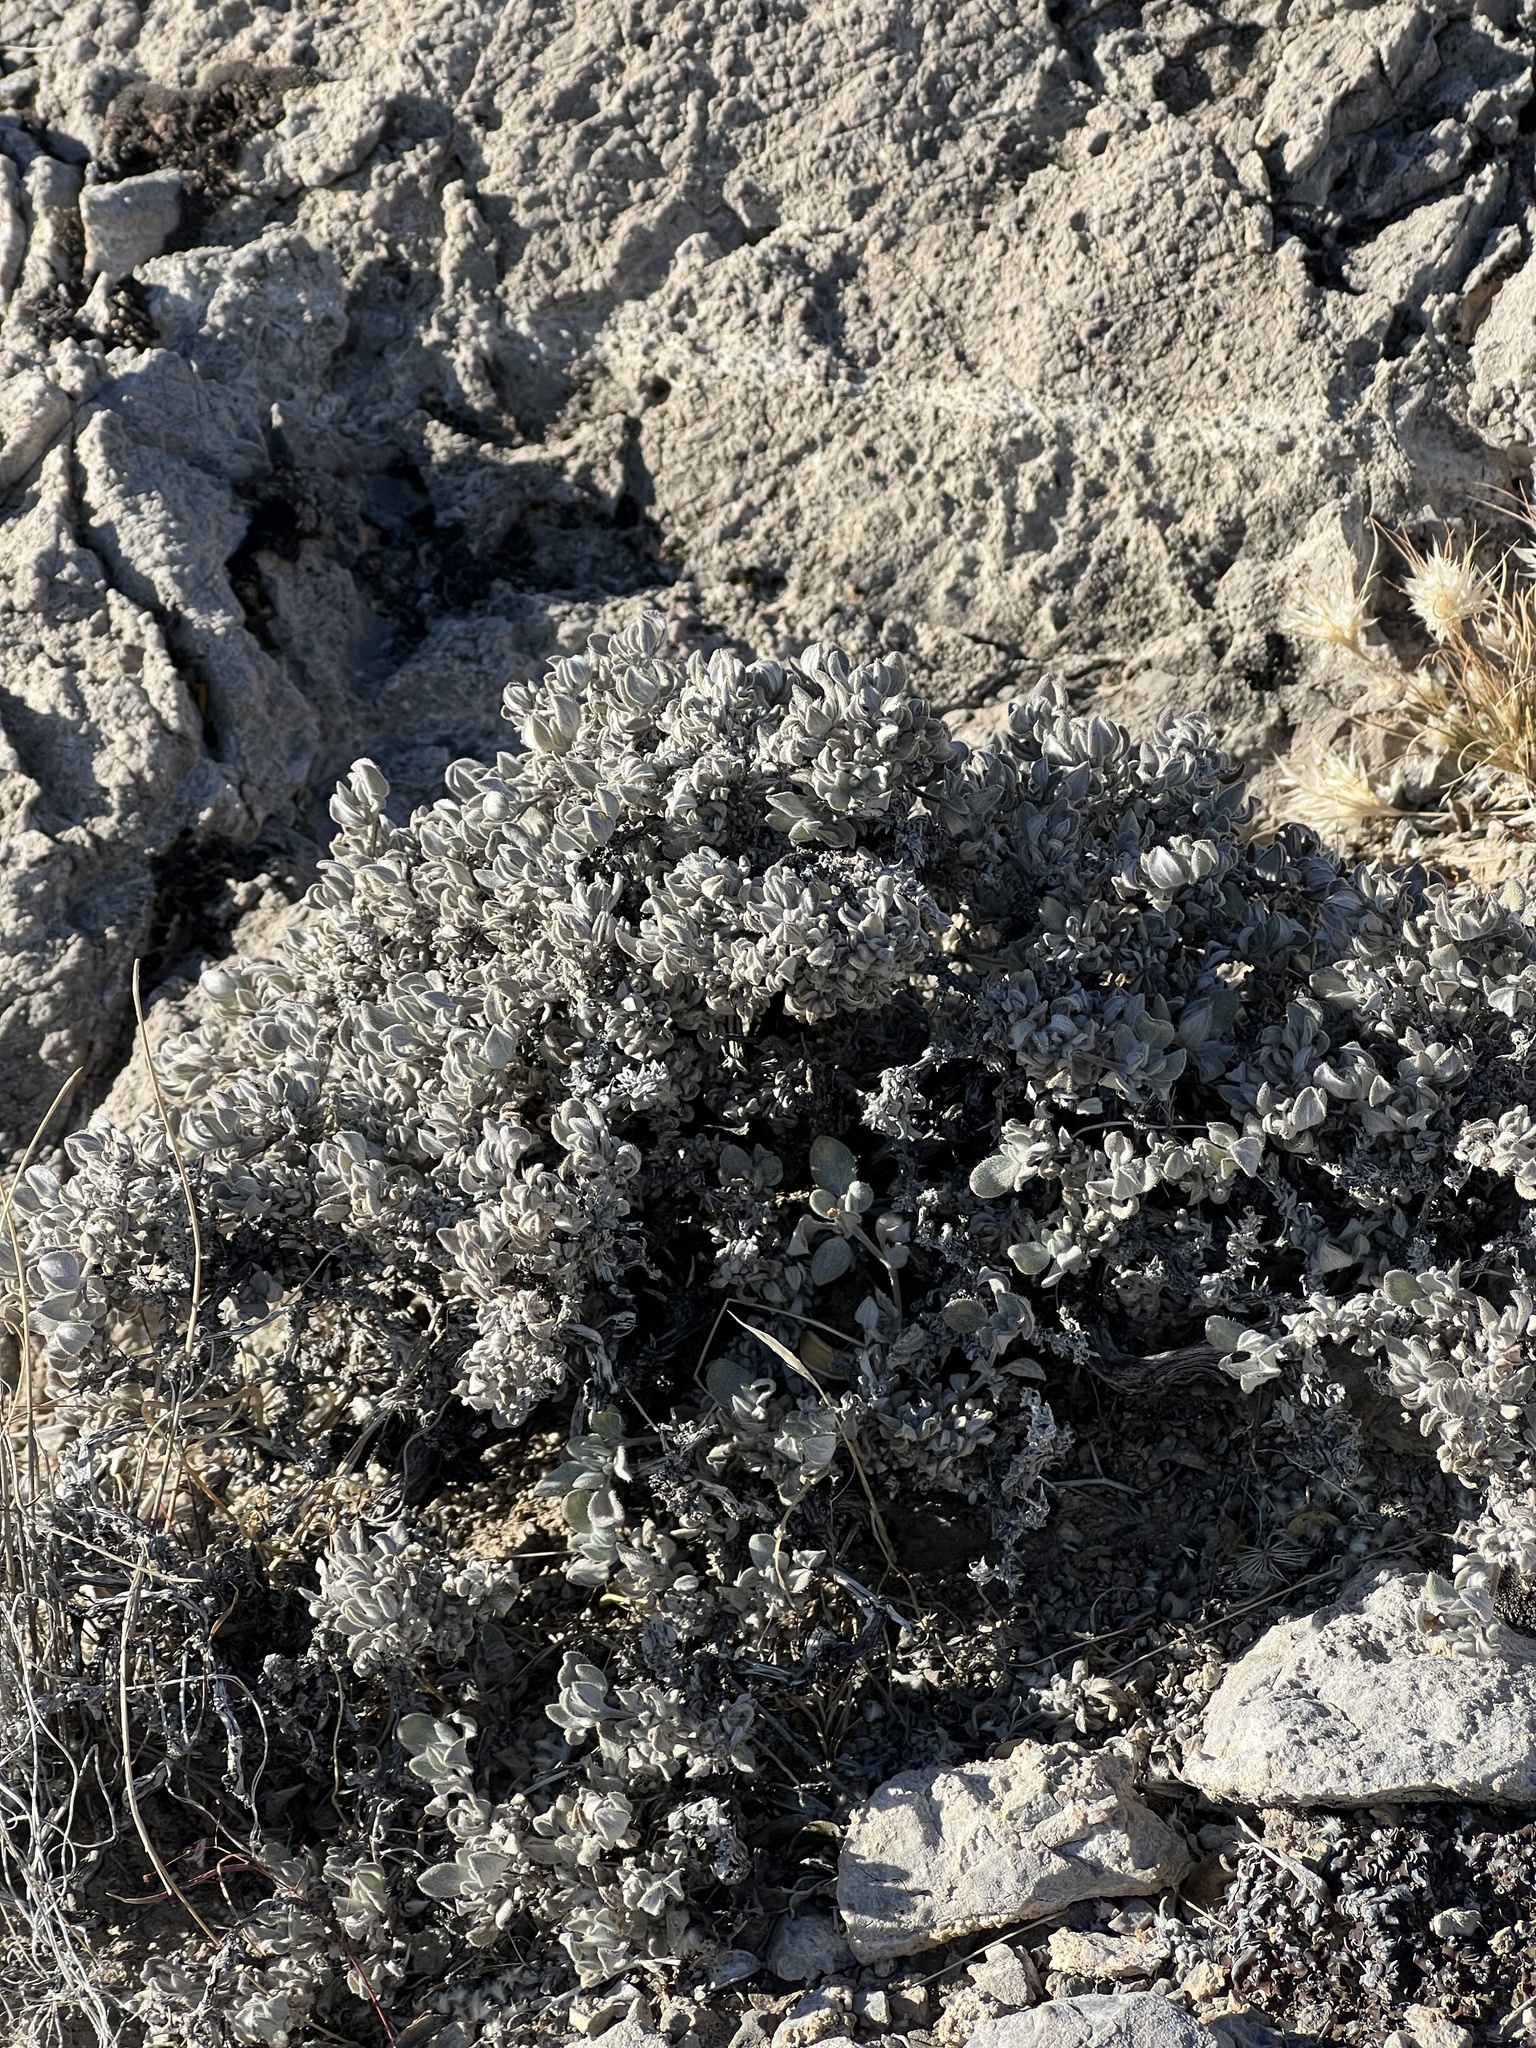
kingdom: Plantae
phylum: Tracheophyta
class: Magnoliopsida
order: Boraginales
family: Ehretiaceae
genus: Tiquilia
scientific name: Tiquilia canescens
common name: Hairy tiquilia
